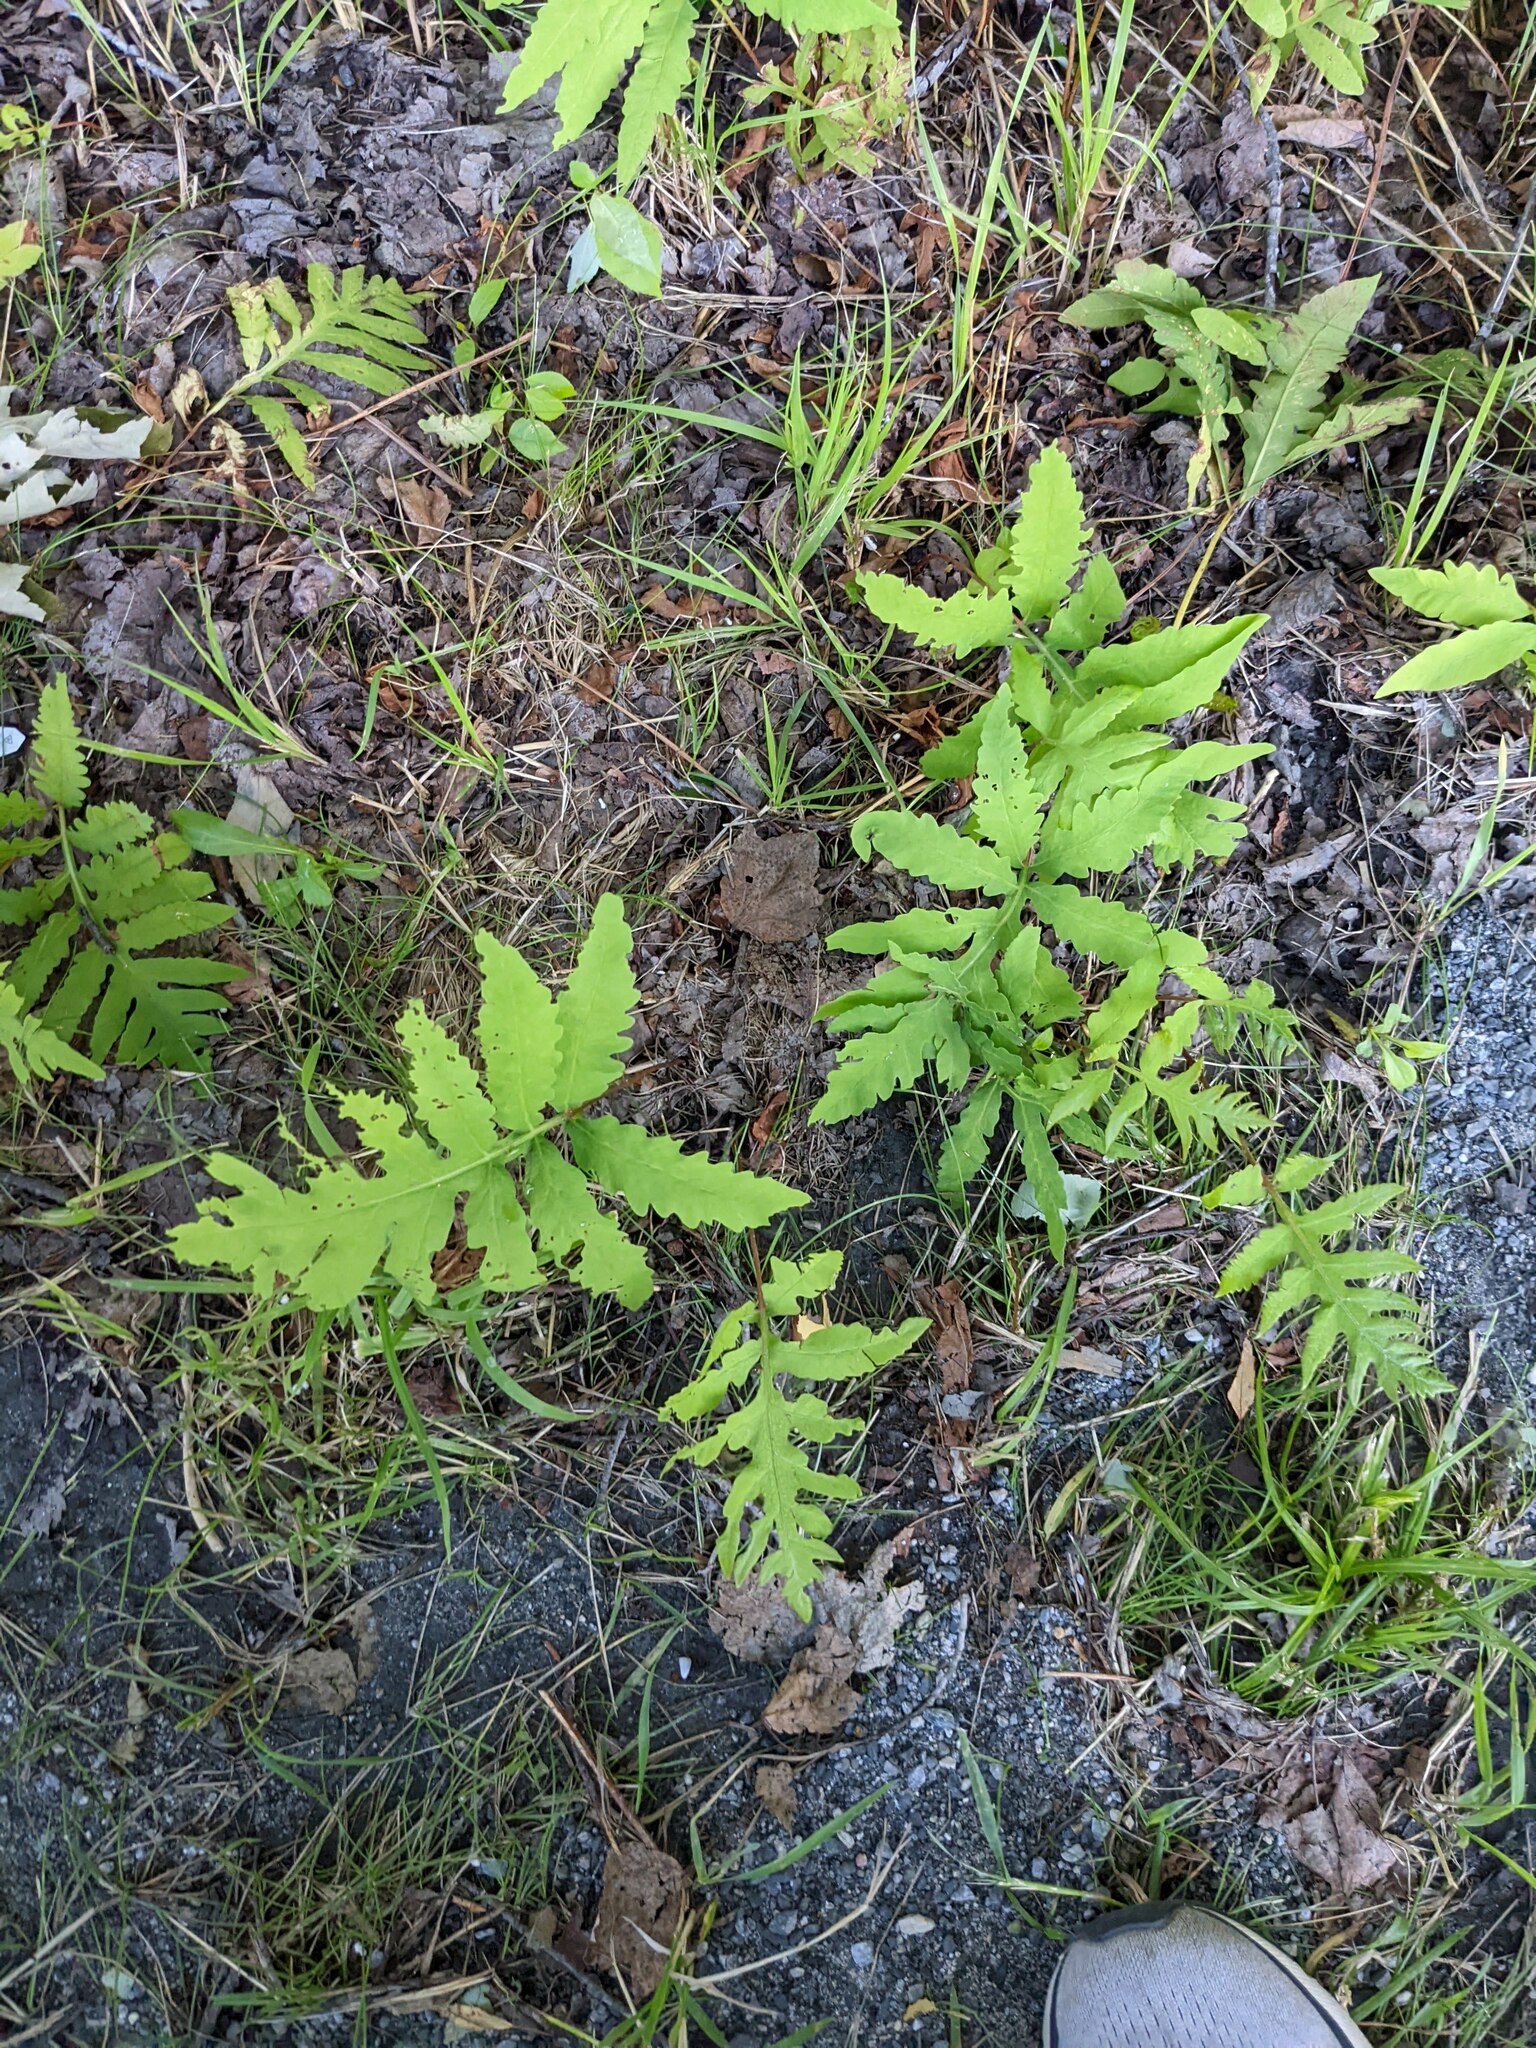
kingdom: Plantae
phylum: Tracheophyta
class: Polypodiopsida
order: Polypodiales
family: Onocleaceae
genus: Onoclea
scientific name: Onoclea sensibilis
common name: Sensitive fern
